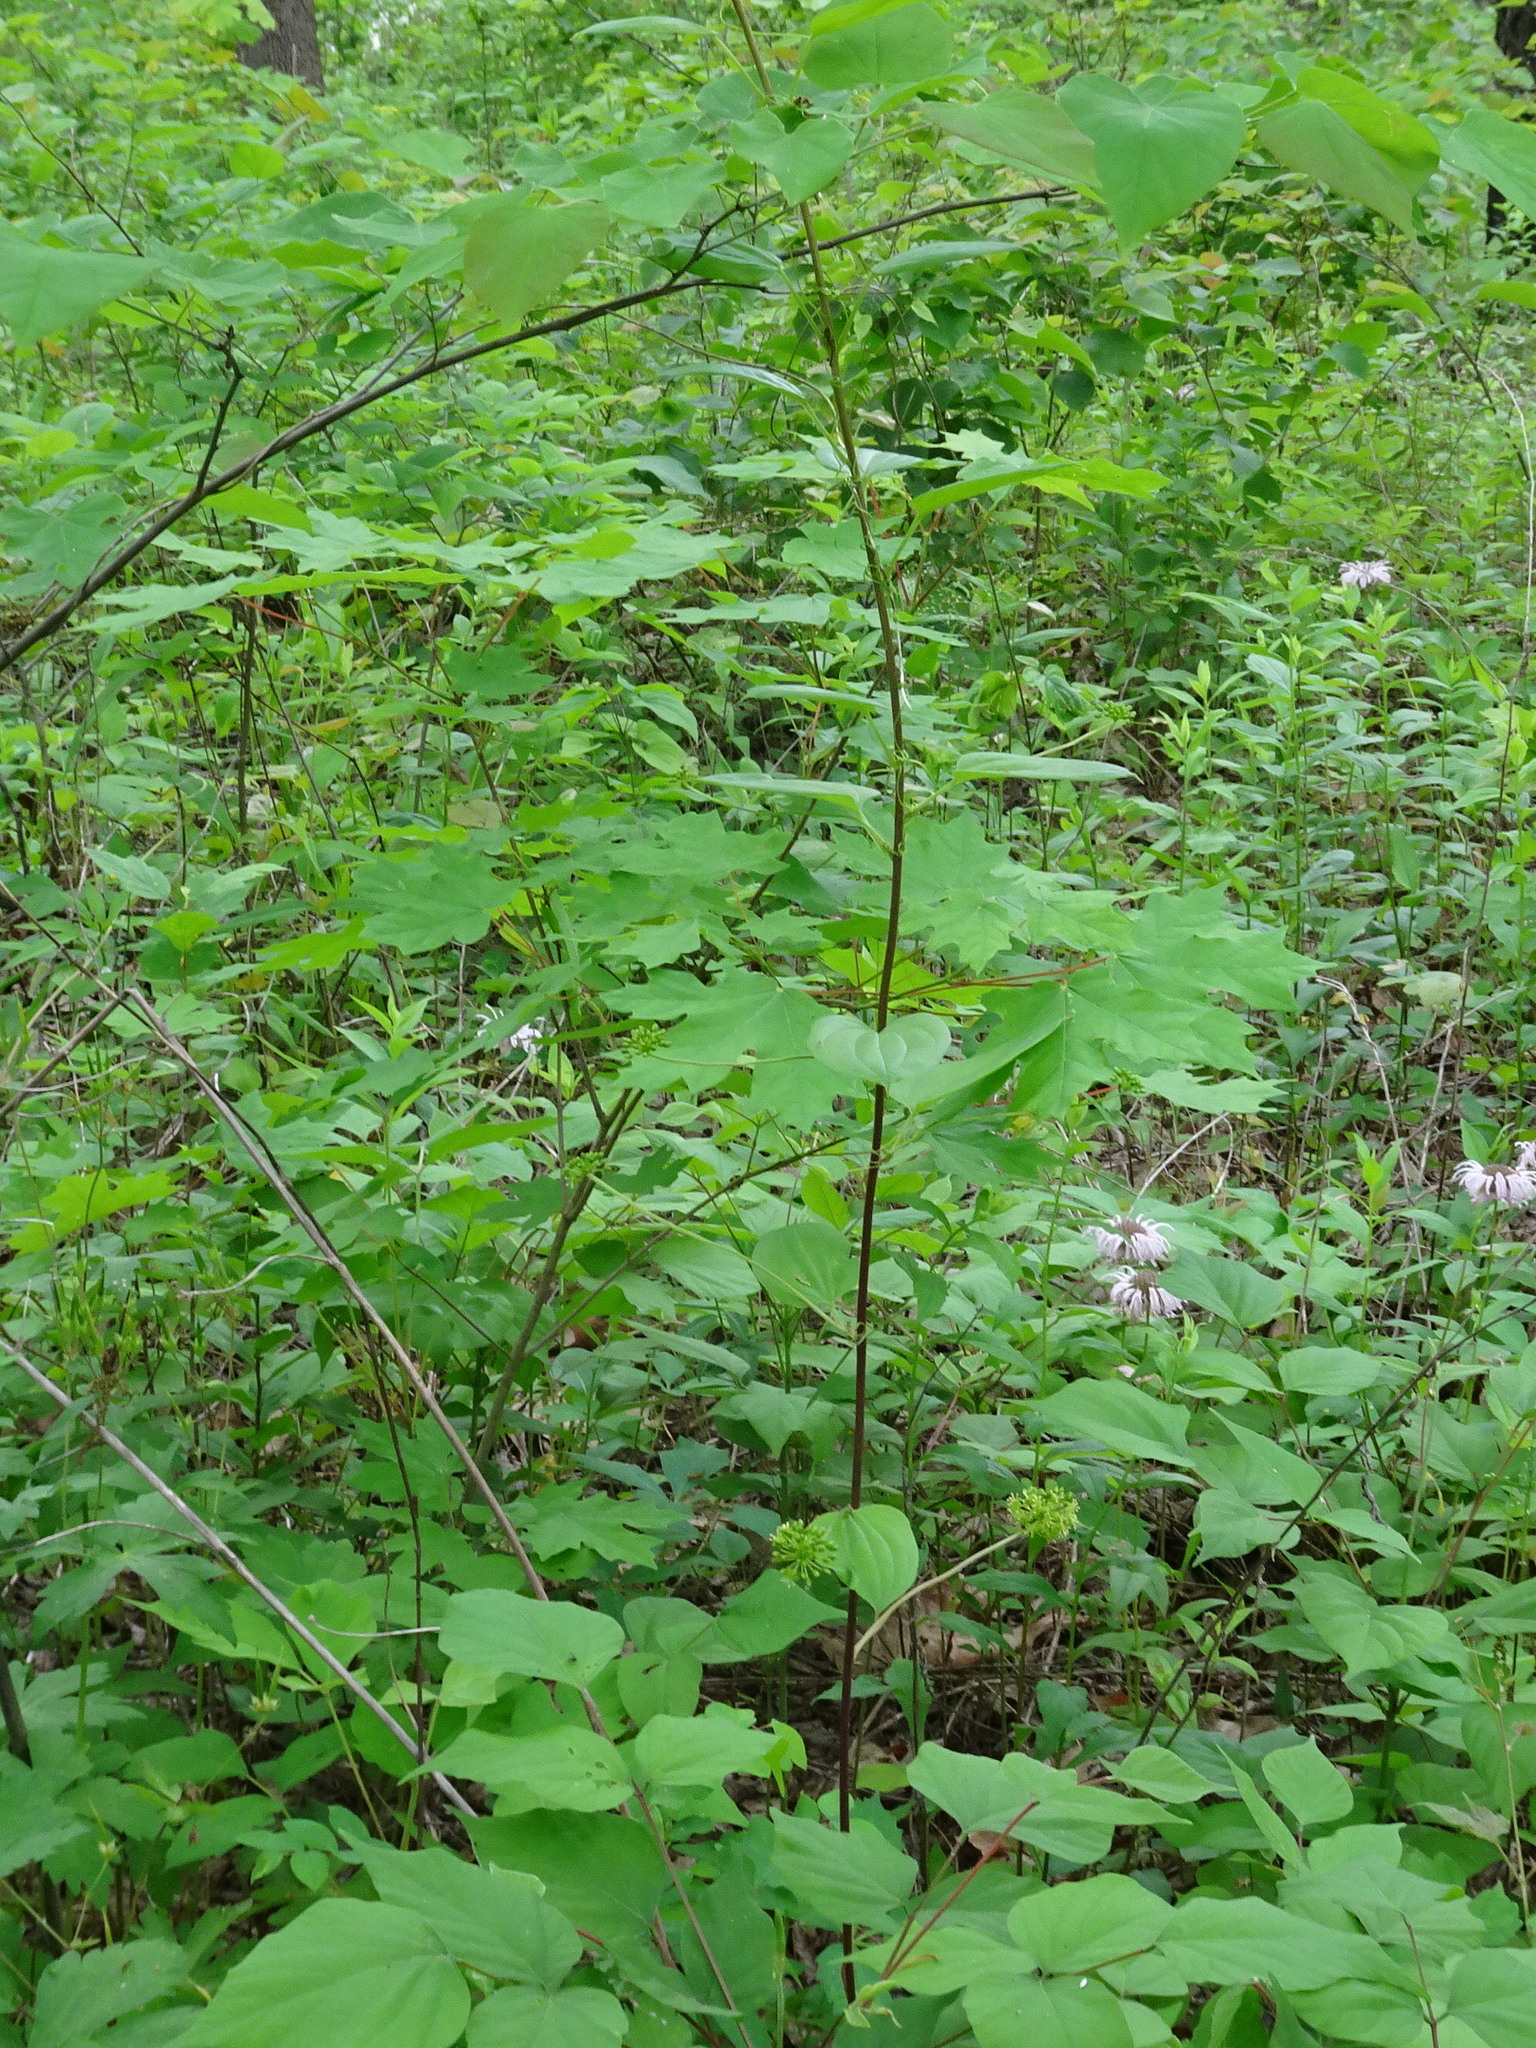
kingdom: Plantae
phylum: Tracheophyta
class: Liliopsida
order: Liliales
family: Smilacaceae
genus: Smilax
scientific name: Smilax lasioneura
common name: Blue ridge carrionflower
